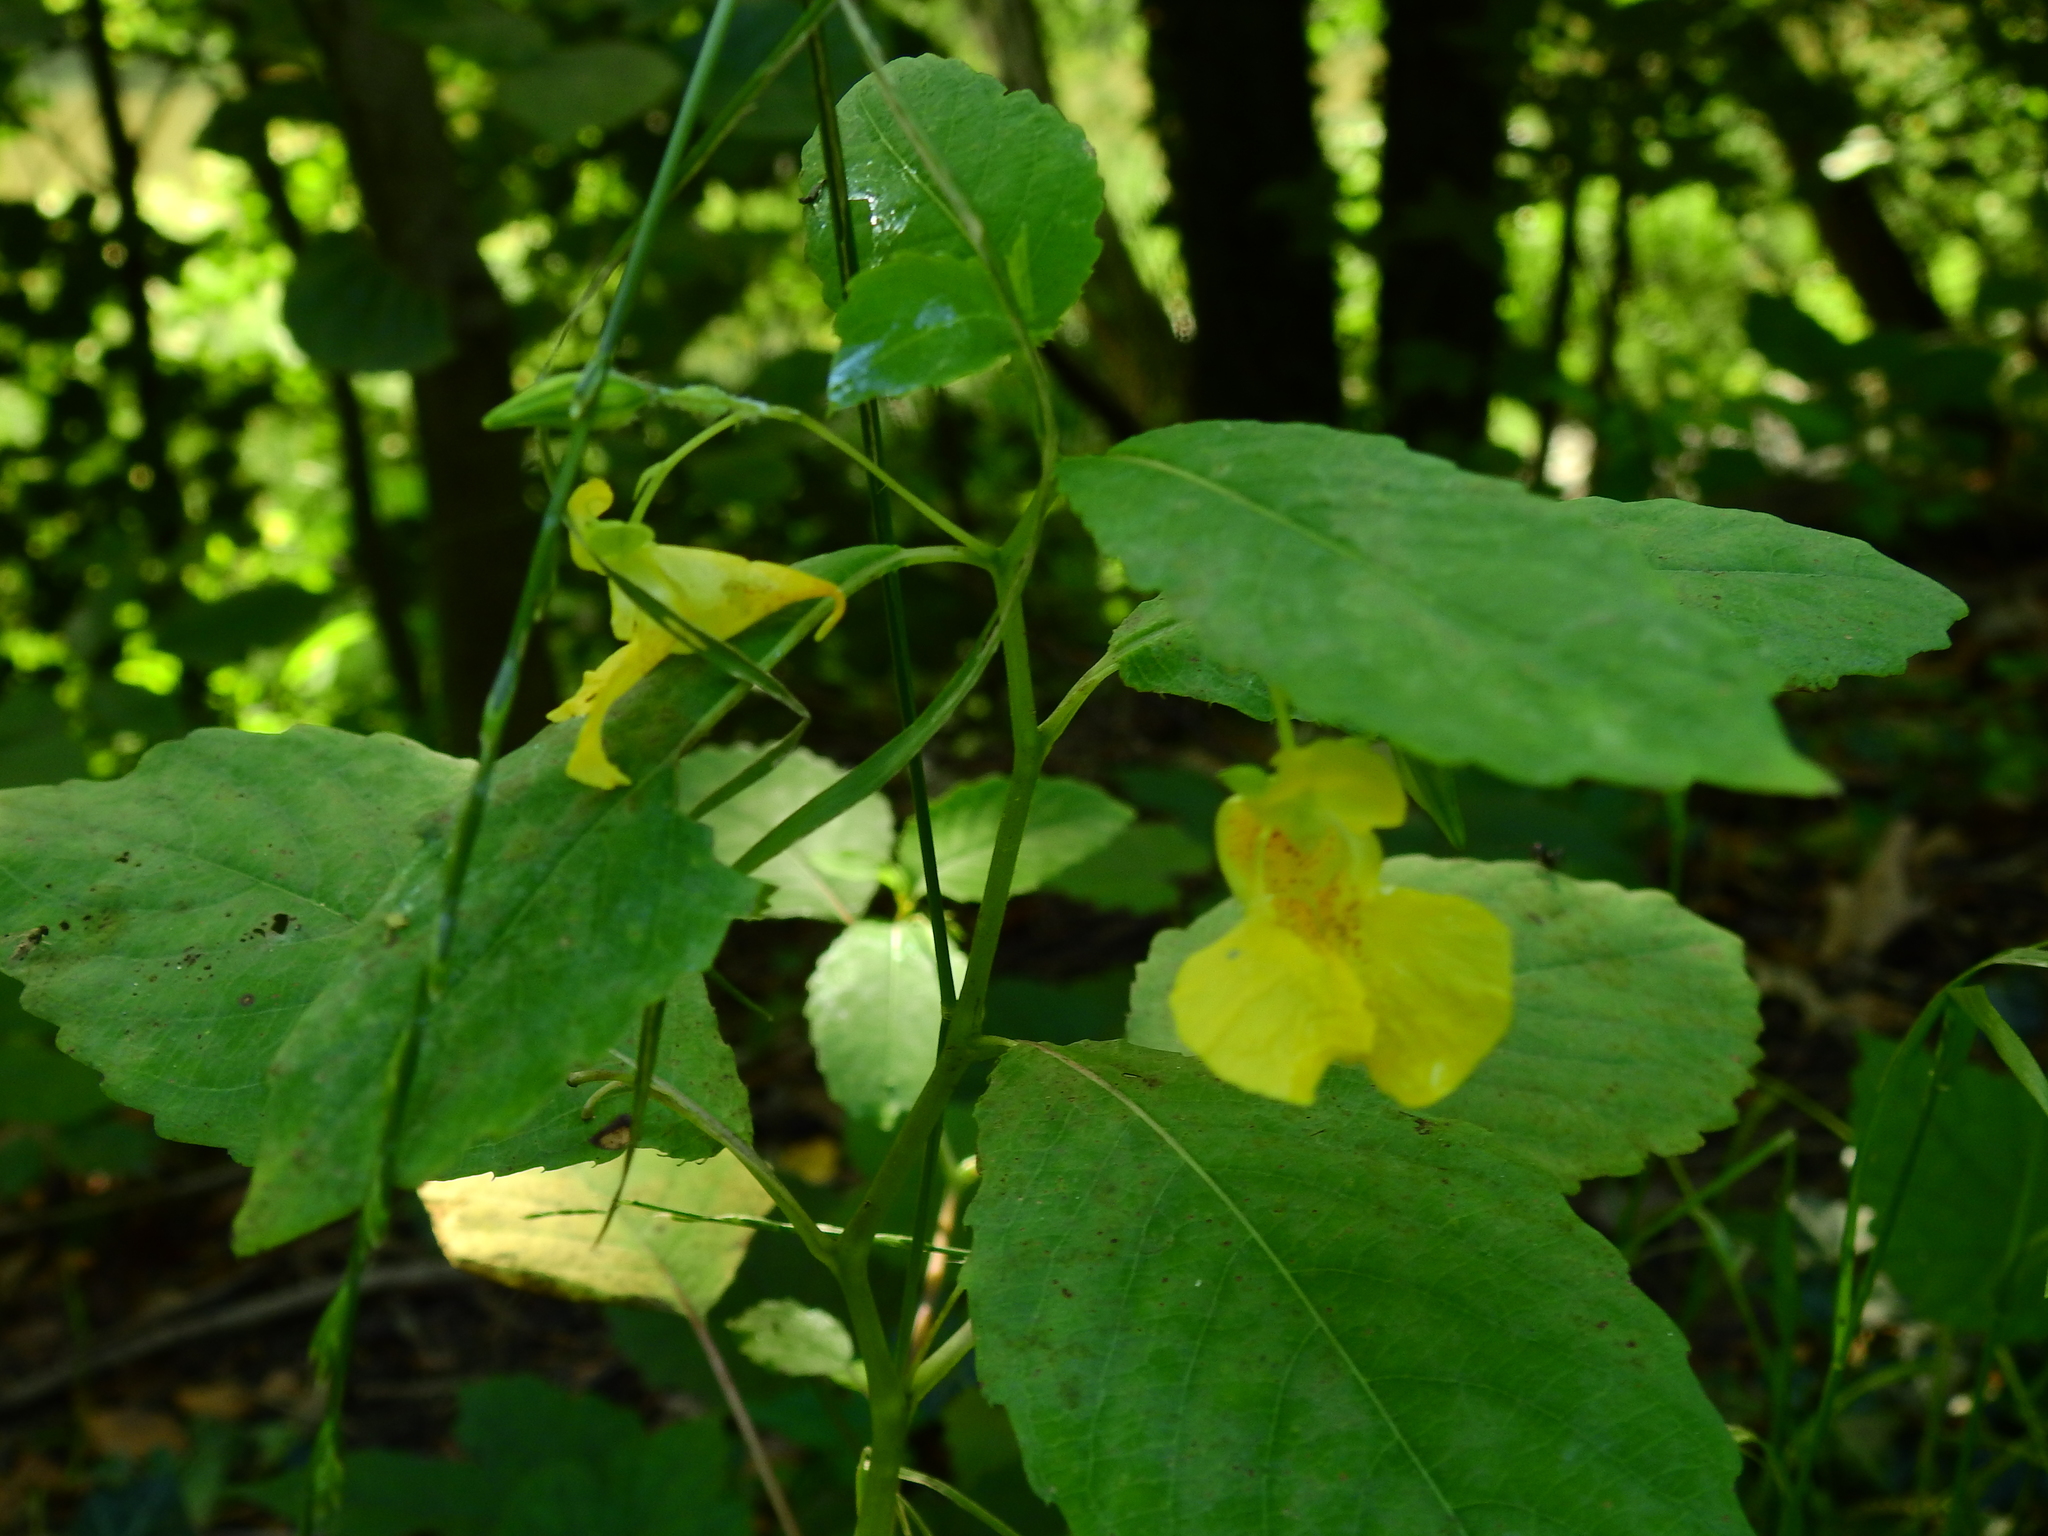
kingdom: Plantae
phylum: Tracheophyta
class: Magnoliopsida
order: Ericales
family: Balsaminaceae
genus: Impatiens
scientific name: Impatiens pallida
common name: Pale snapweed
